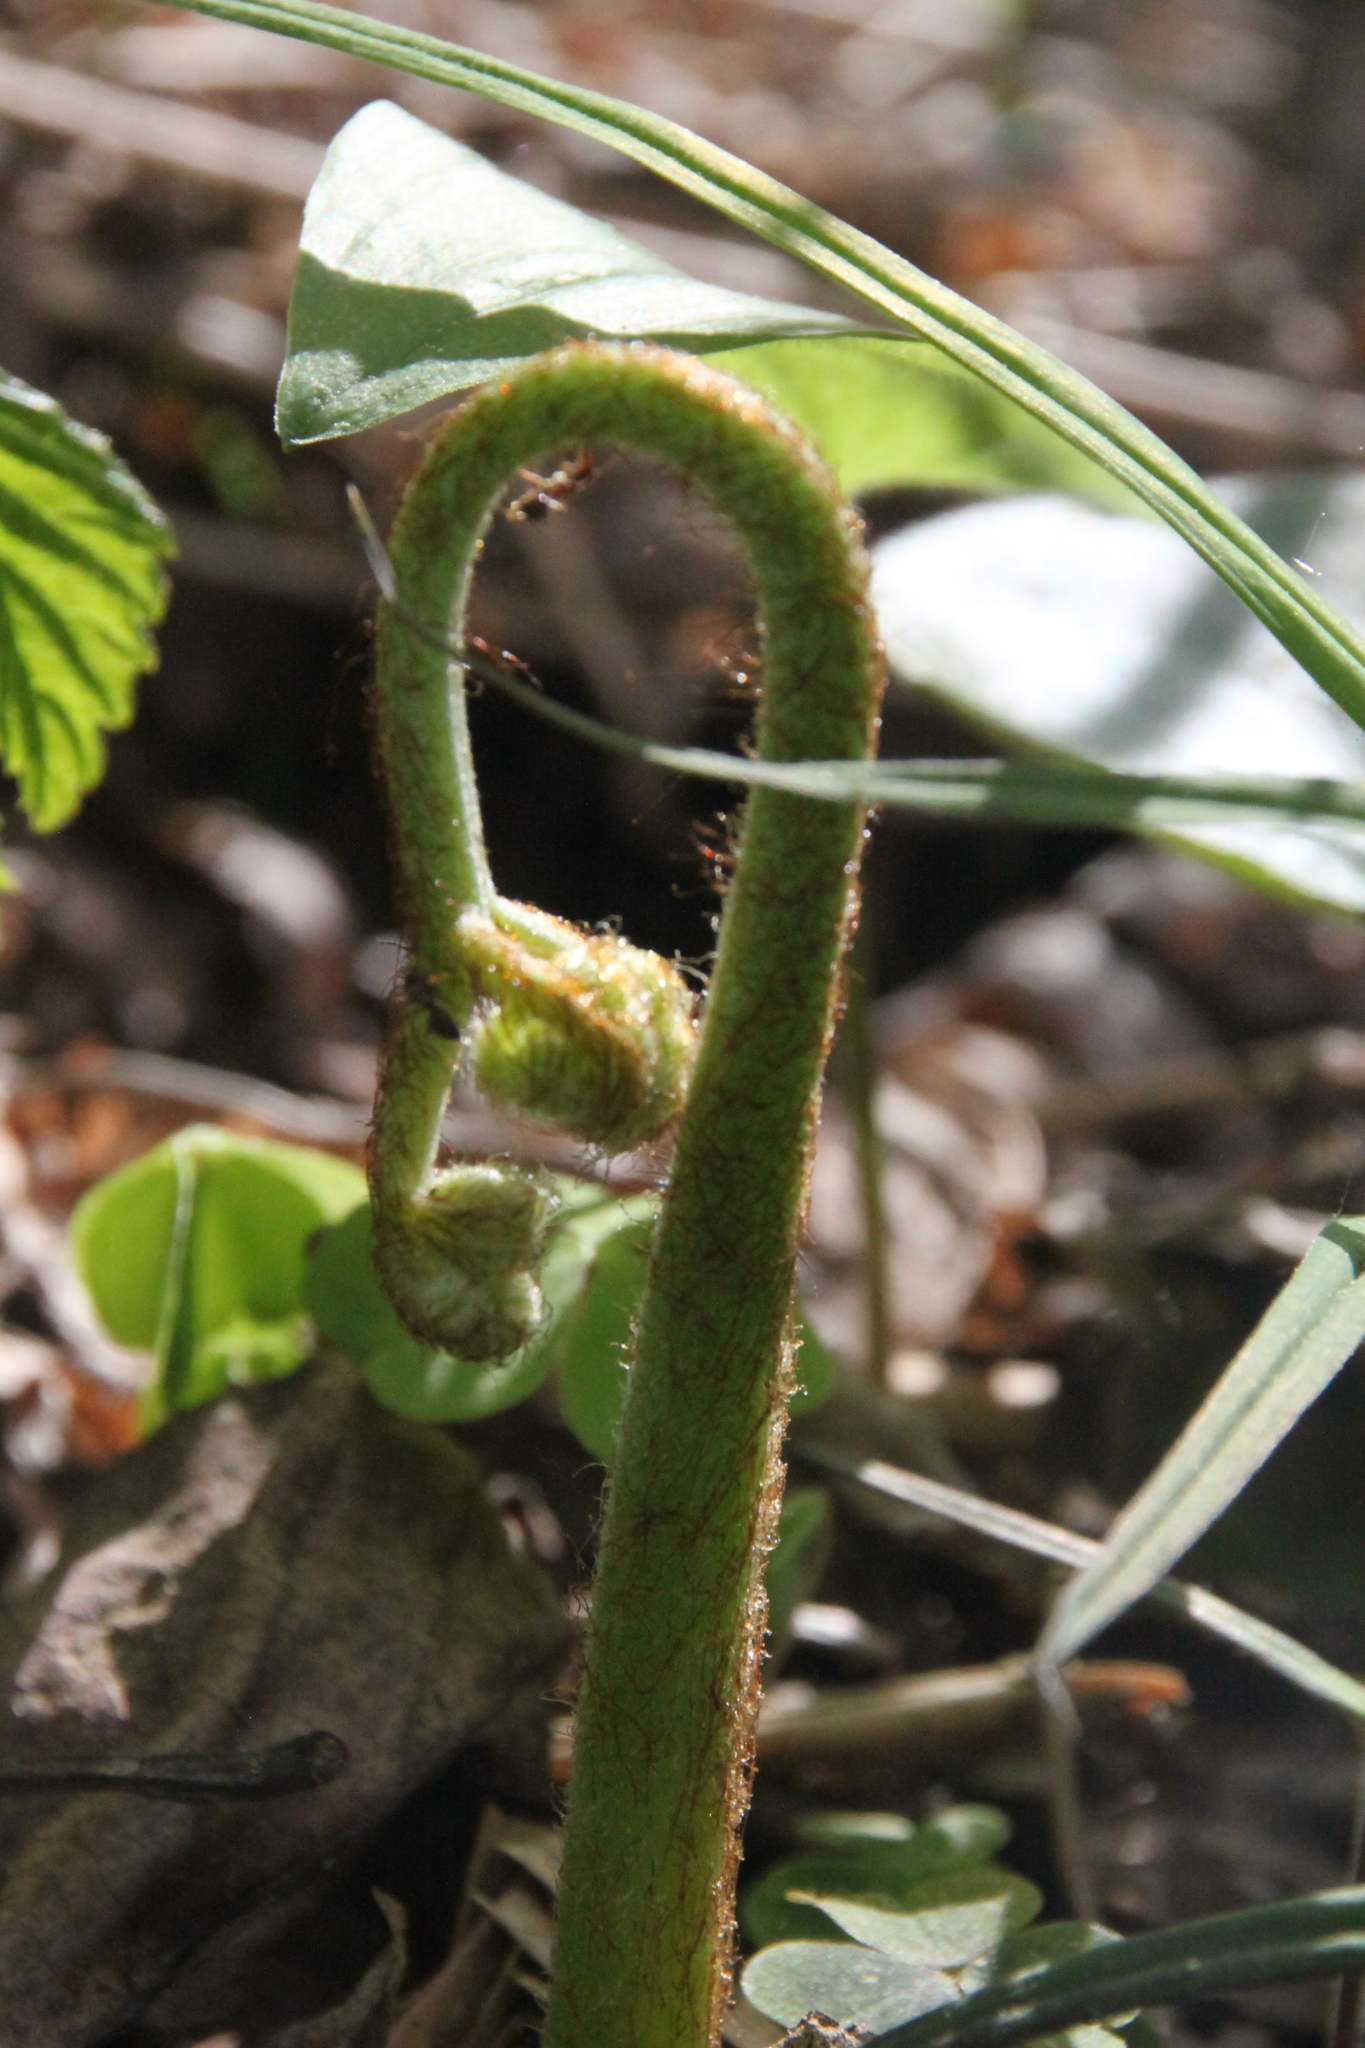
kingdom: Plantae
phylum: Tracheophyta
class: Polypodiopsida
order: Polypodiales
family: Dennstaedtiaceae
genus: Pteridium
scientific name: Pteridium aquilinum
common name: Bracken
